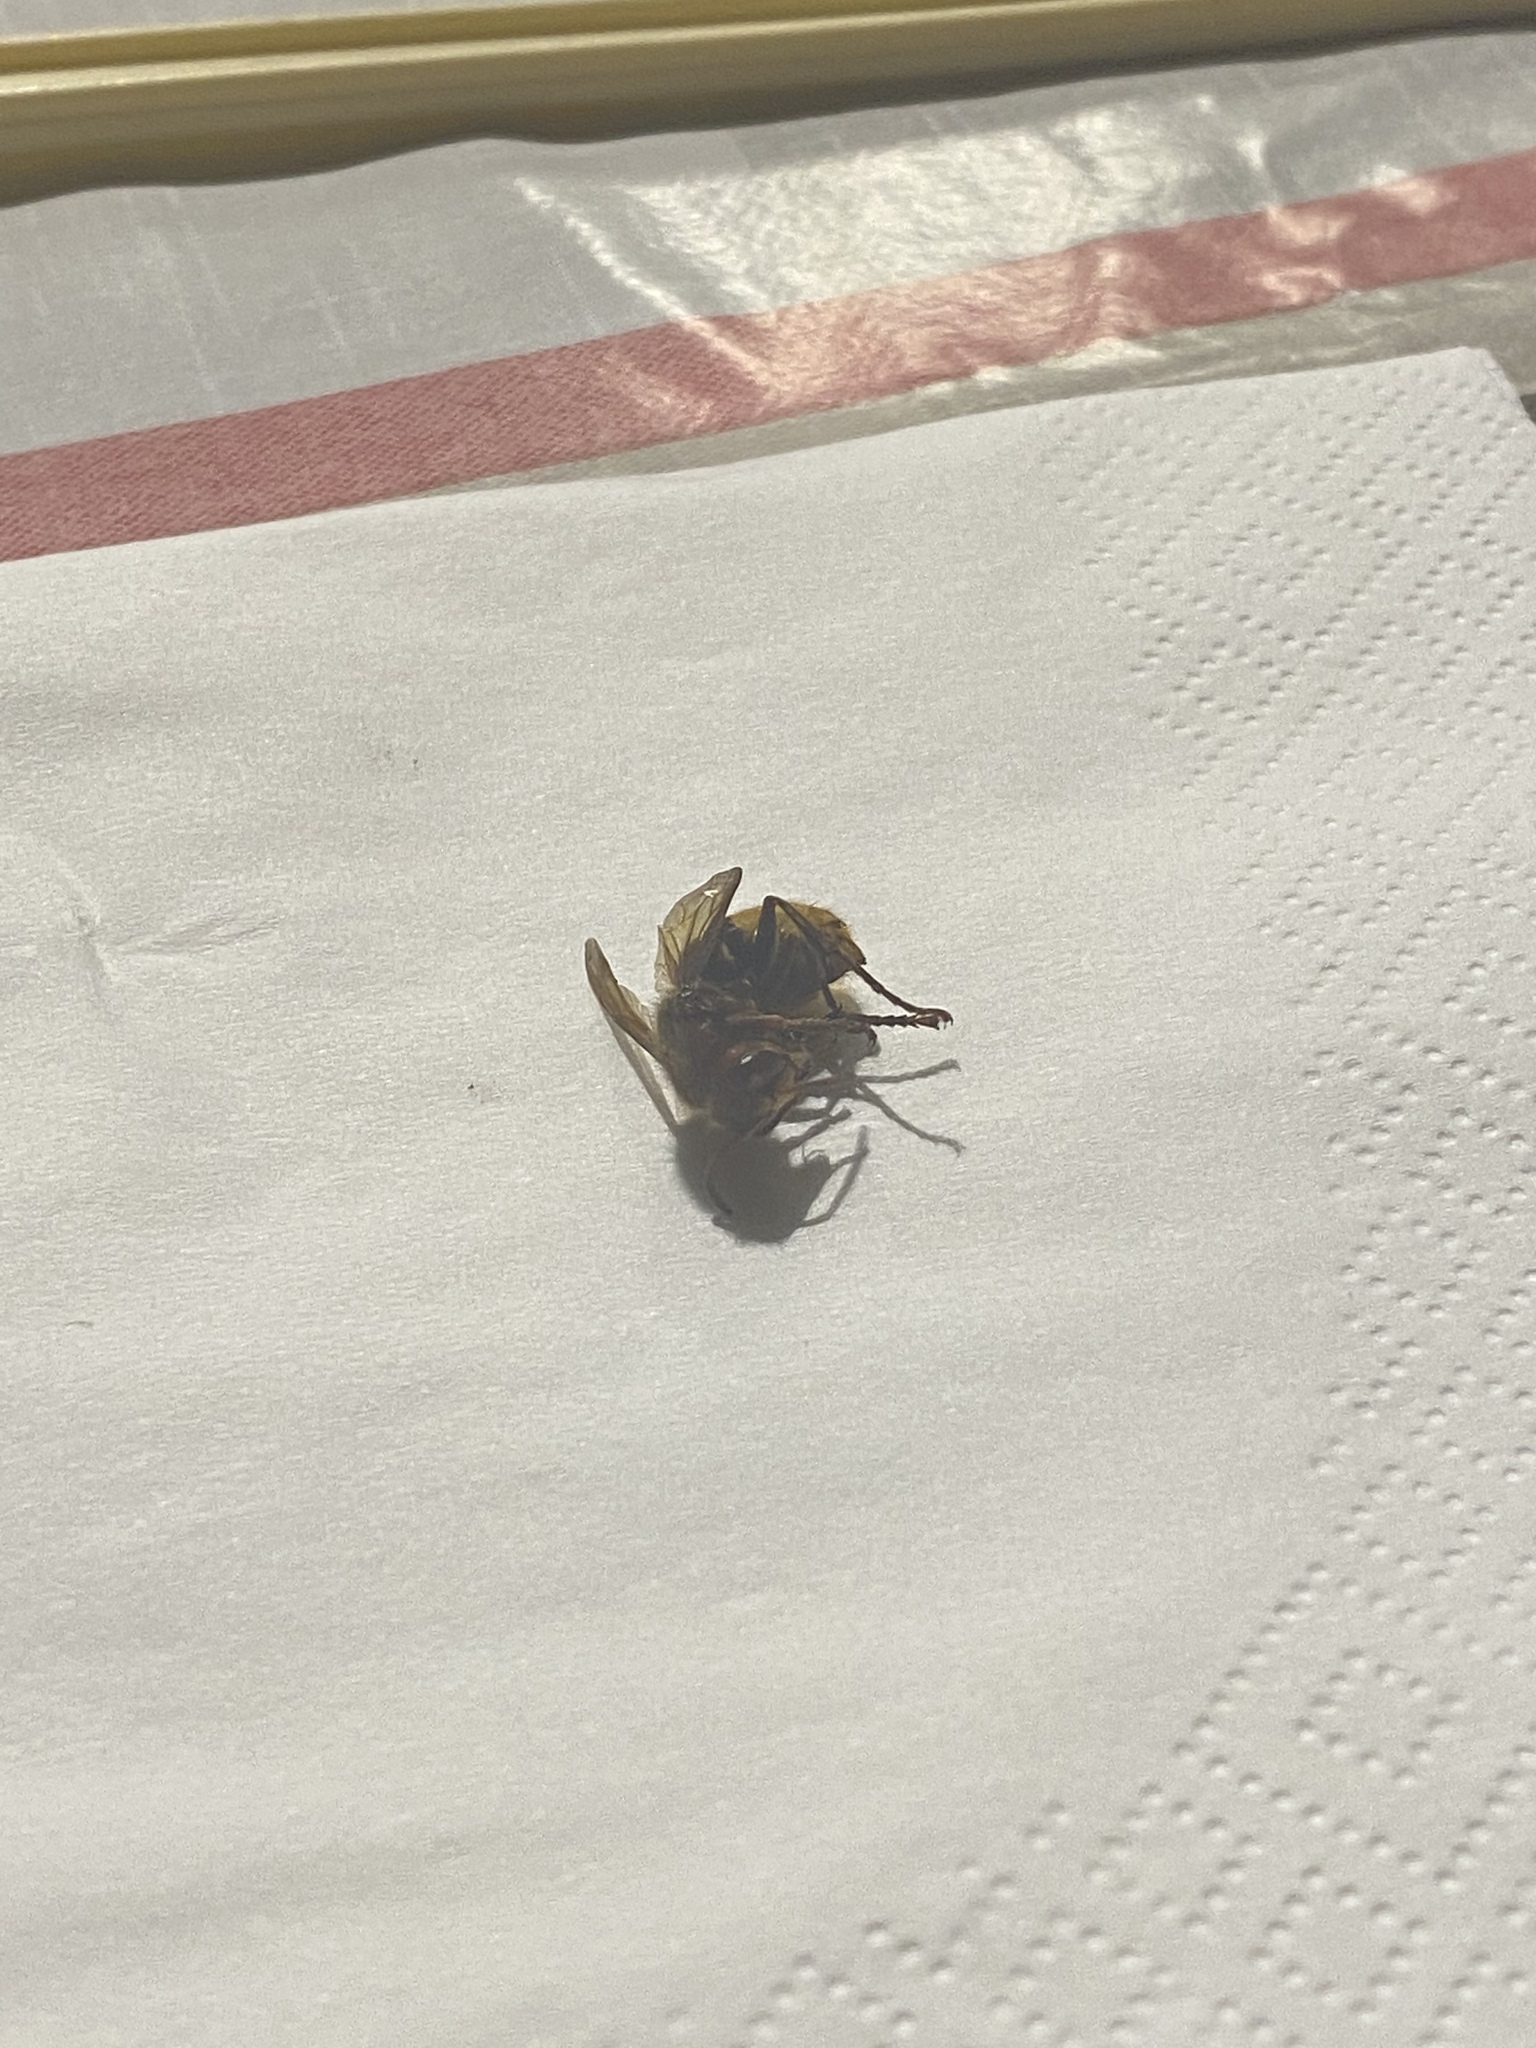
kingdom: Animalia
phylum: Arthropoda
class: Insecta
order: Hymenoptera
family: Vespidae
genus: Vespa
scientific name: Vespa crabro
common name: Hornet
